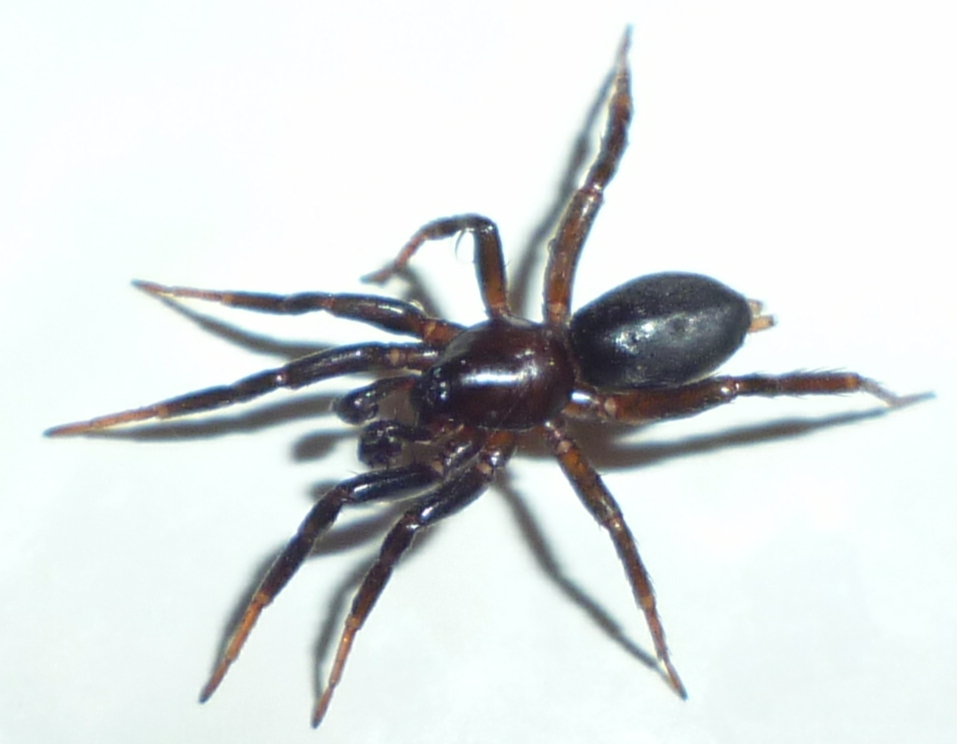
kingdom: Animalia
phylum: Arthropoda
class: Arachnida
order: Araneae
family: Gnaphosidae
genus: Sosticus
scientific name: Sosticus insularis
